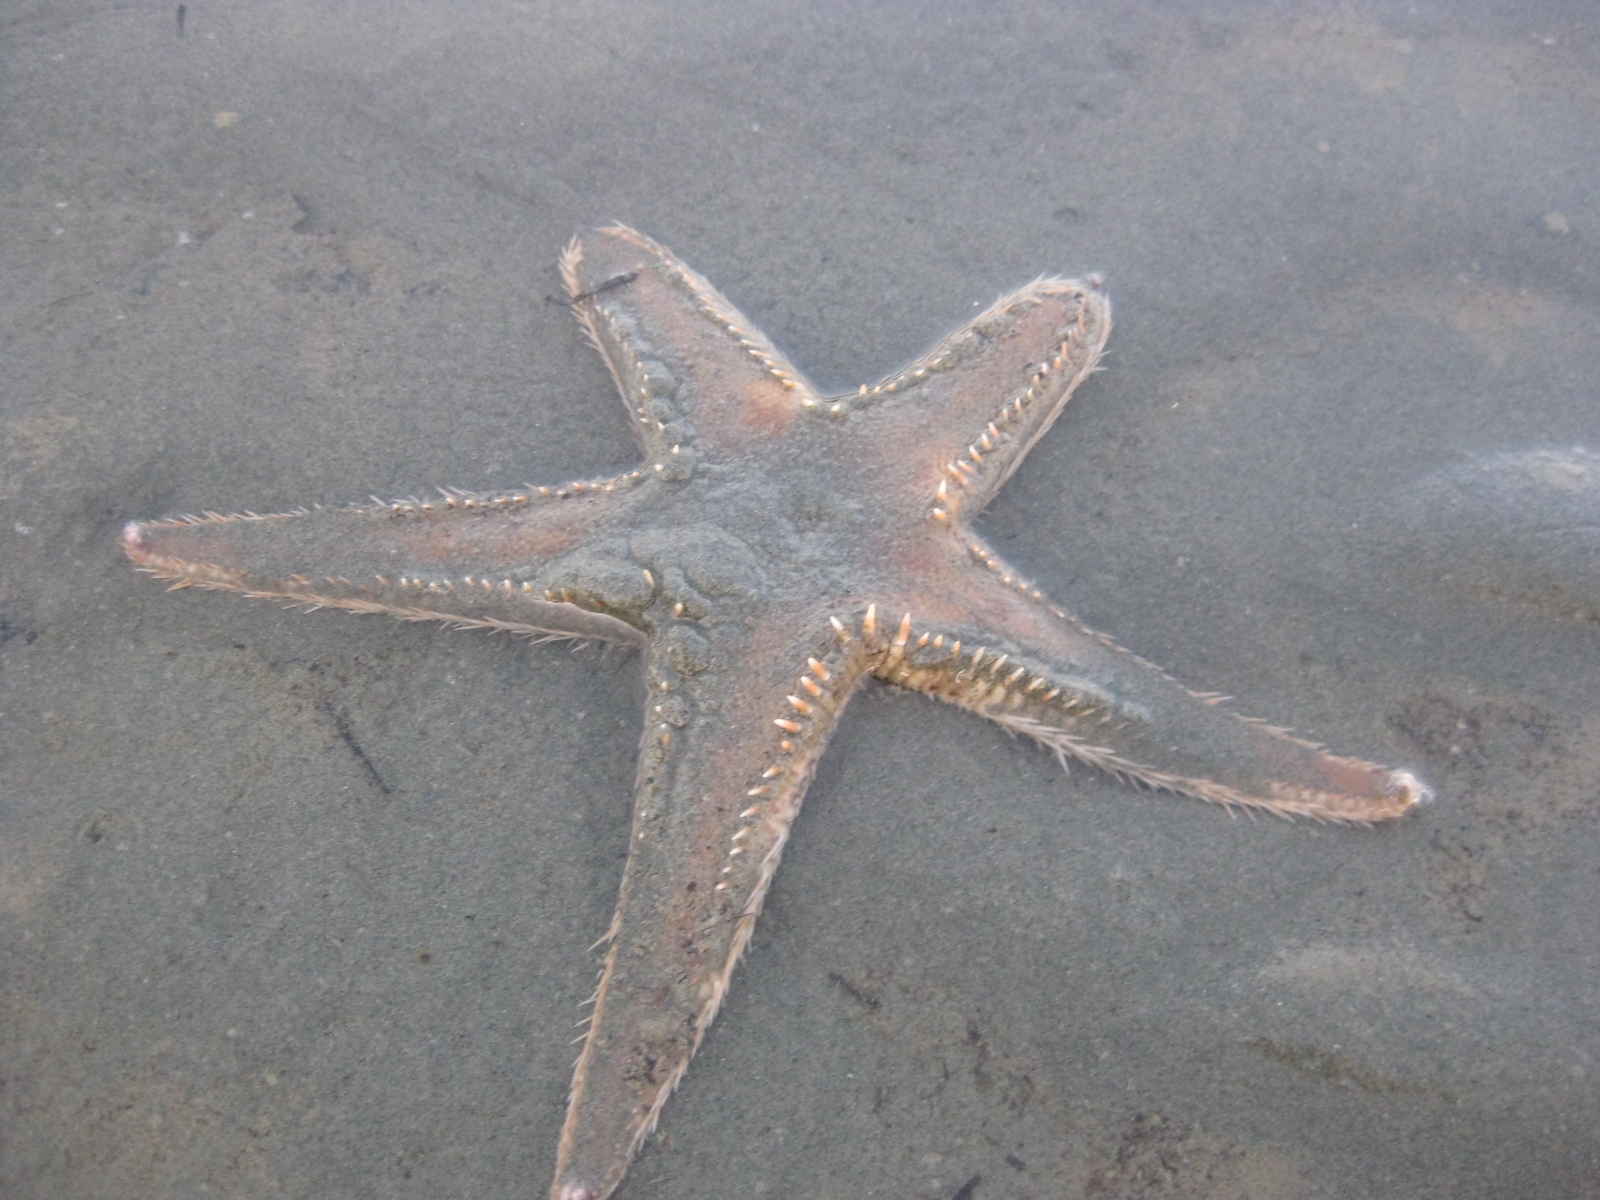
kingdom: Animalia
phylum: Echinodermata
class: Asteroidea
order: Paxillosida
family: Astropectinidae
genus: Astropecten
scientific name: Astropecten polyacanthus
